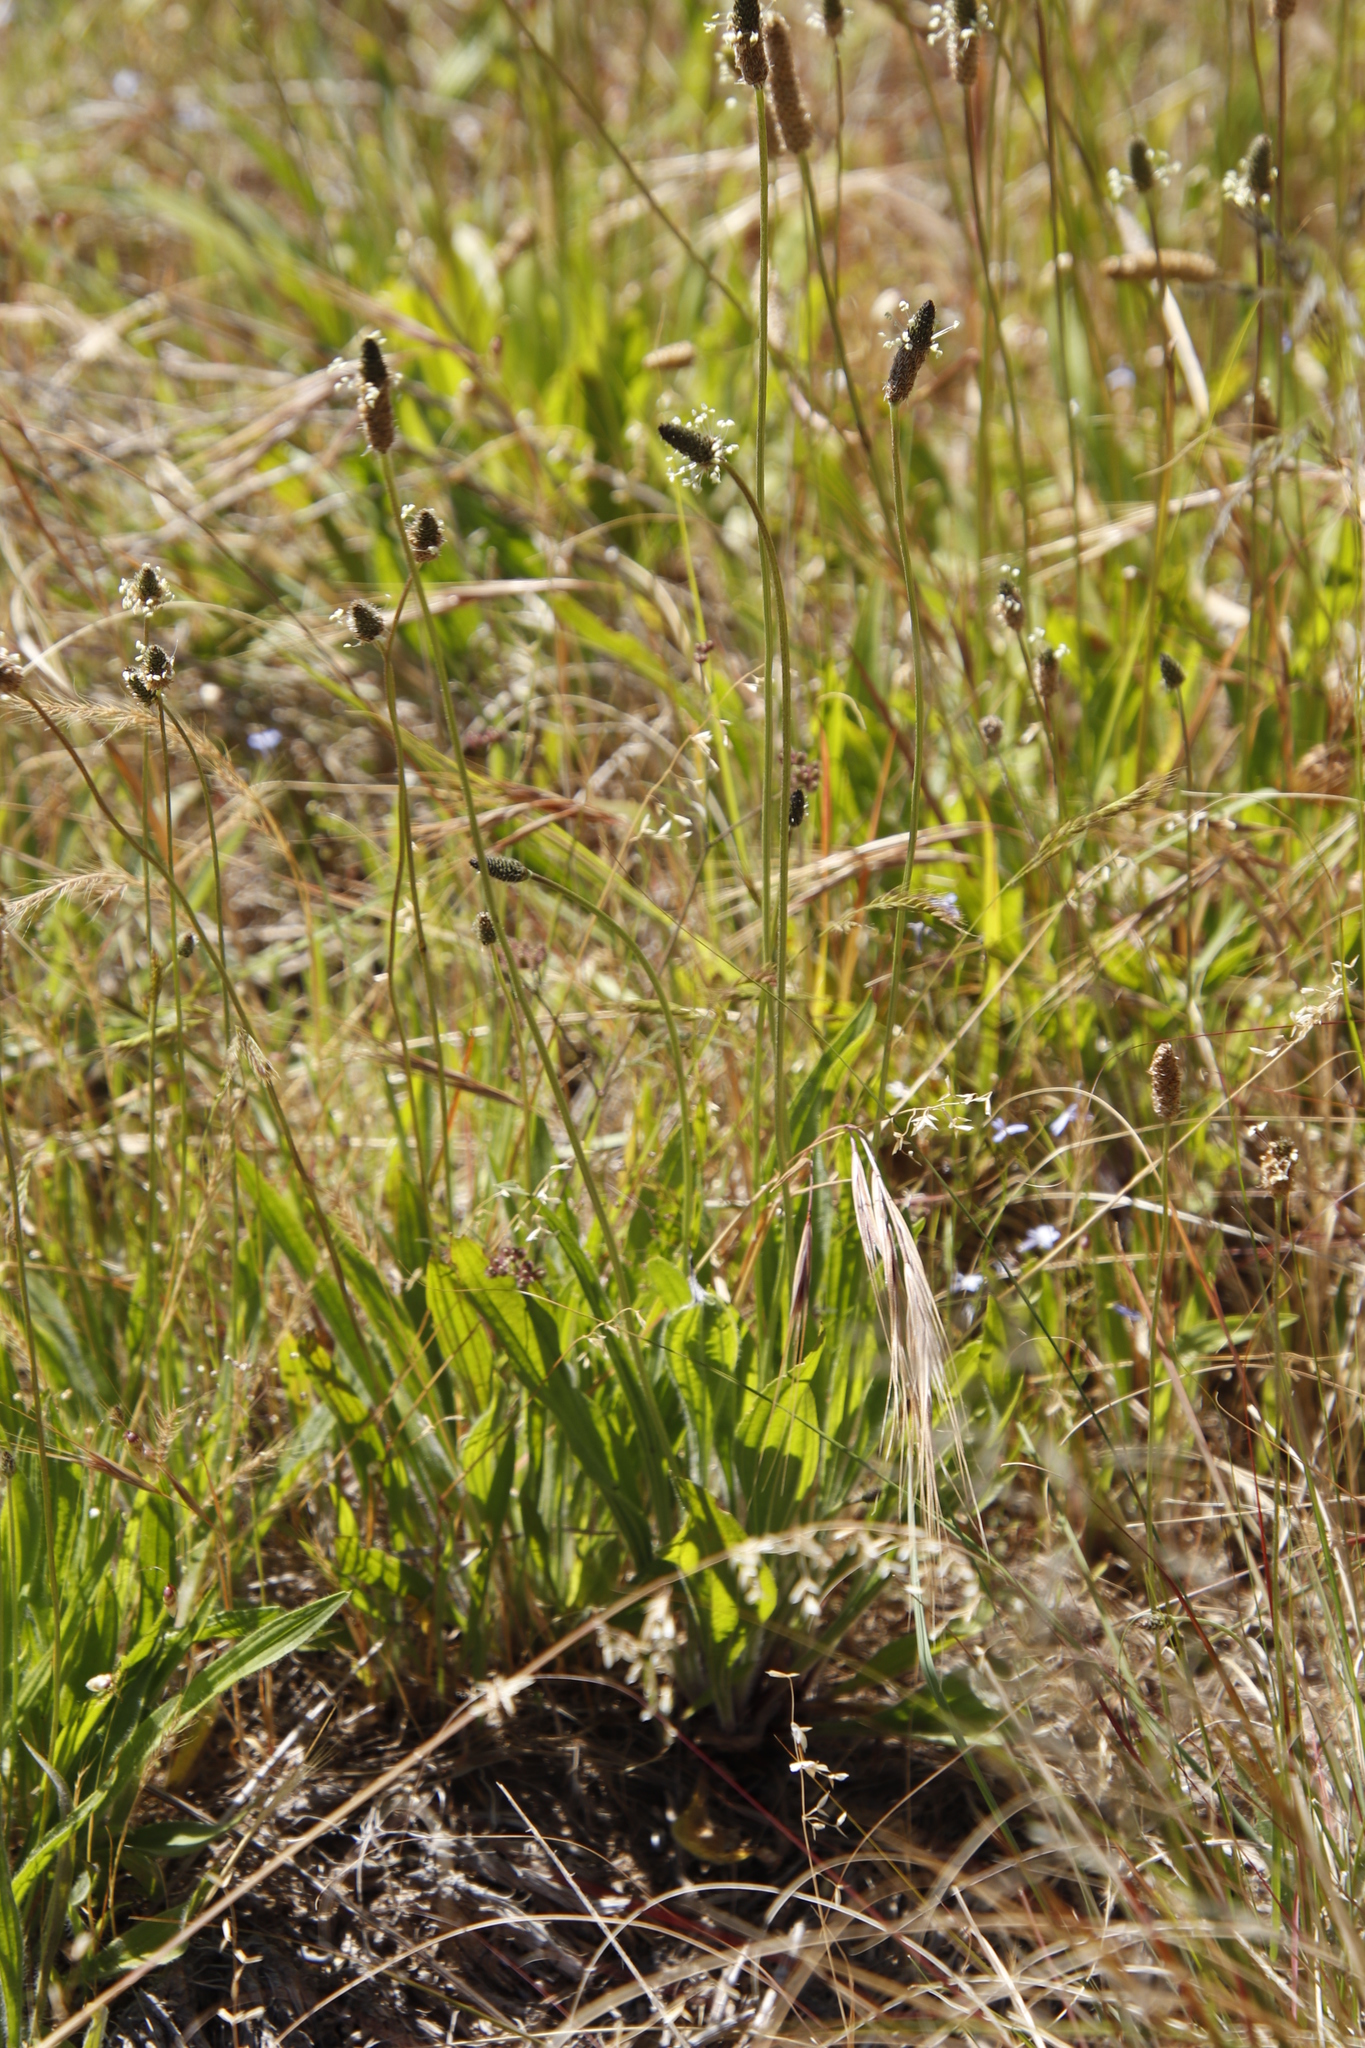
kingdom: Plantae
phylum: Tracheophyta
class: Magnoliopsida
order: Lamiales
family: Plantaginaceae
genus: Plantago
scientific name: Plantago lanceolata
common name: Ribwort plantain
